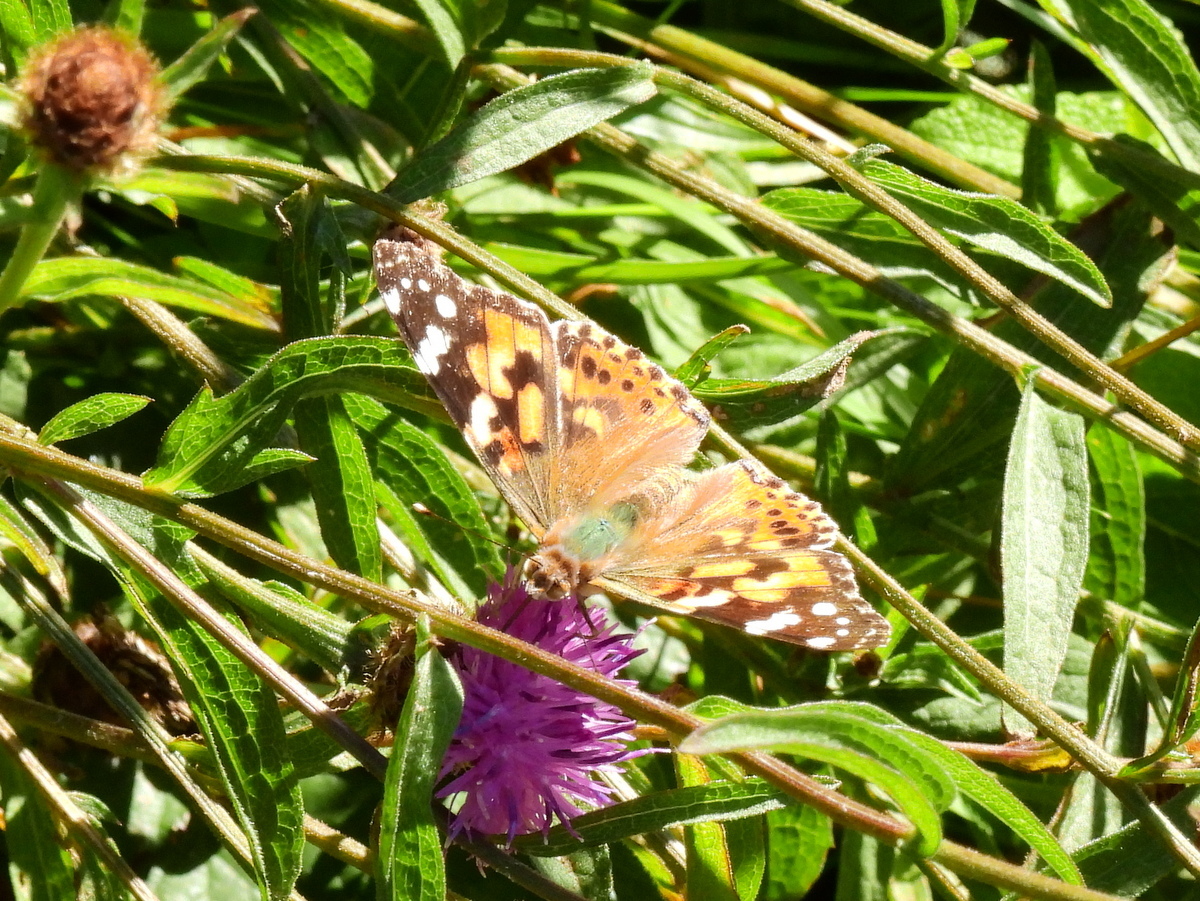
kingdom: Animalia
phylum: Arthropoda
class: Insecta
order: Lepidoptera
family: Nymphalidae
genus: Vanessa
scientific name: Vanessa cardui
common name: Painted lady
